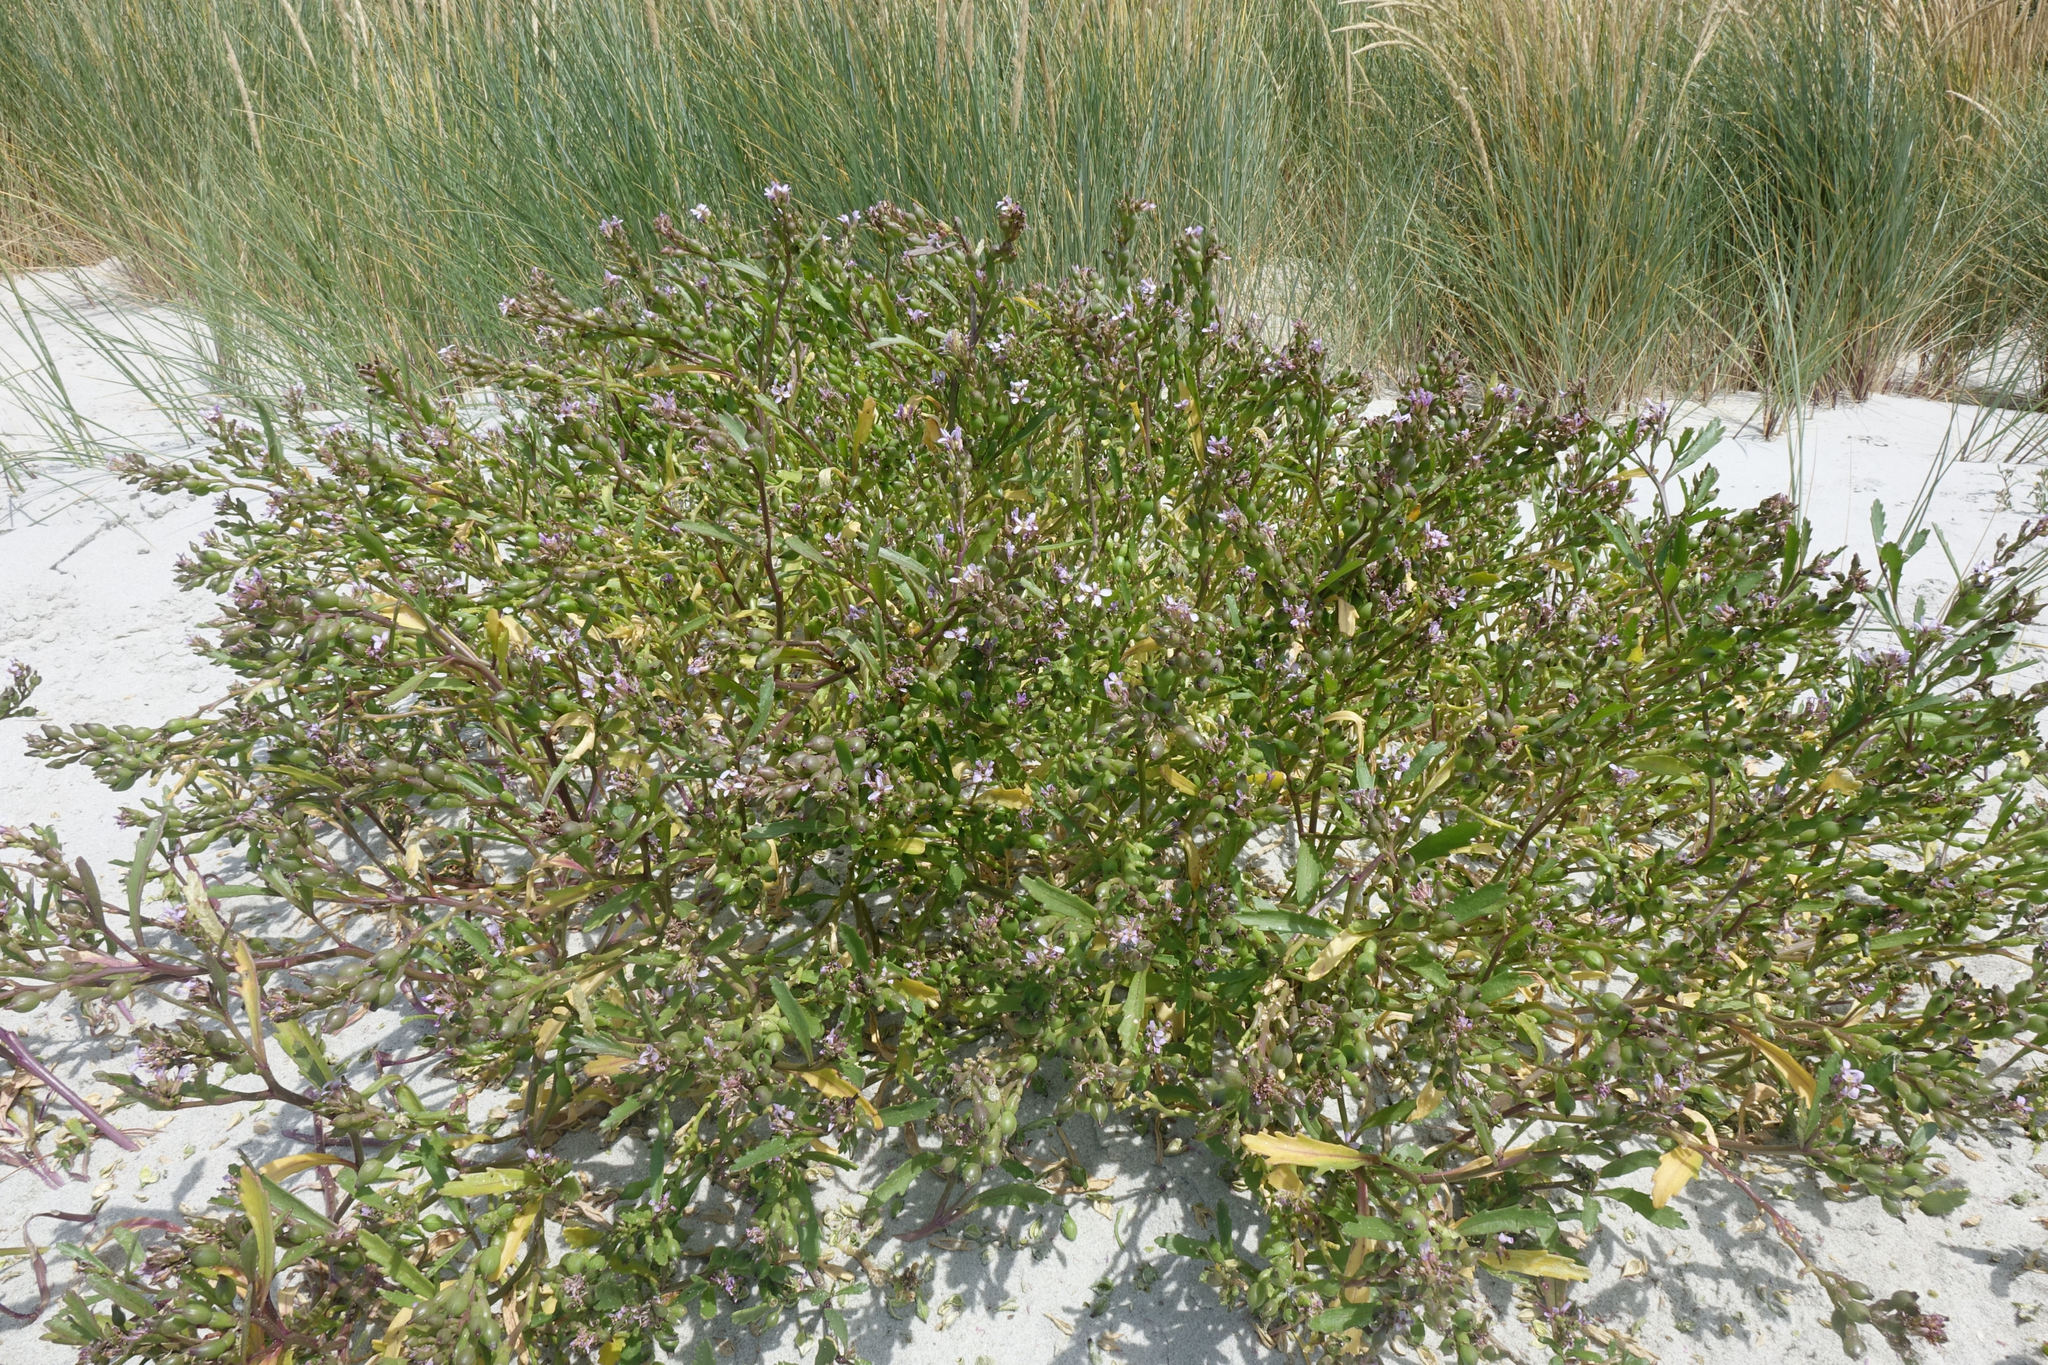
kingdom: Plantae
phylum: Tracheophyta
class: Magnoliopsida
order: Brassicales
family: Brassicaceae
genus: Cakile
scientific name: Cakile edentula
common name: American sea rocket
